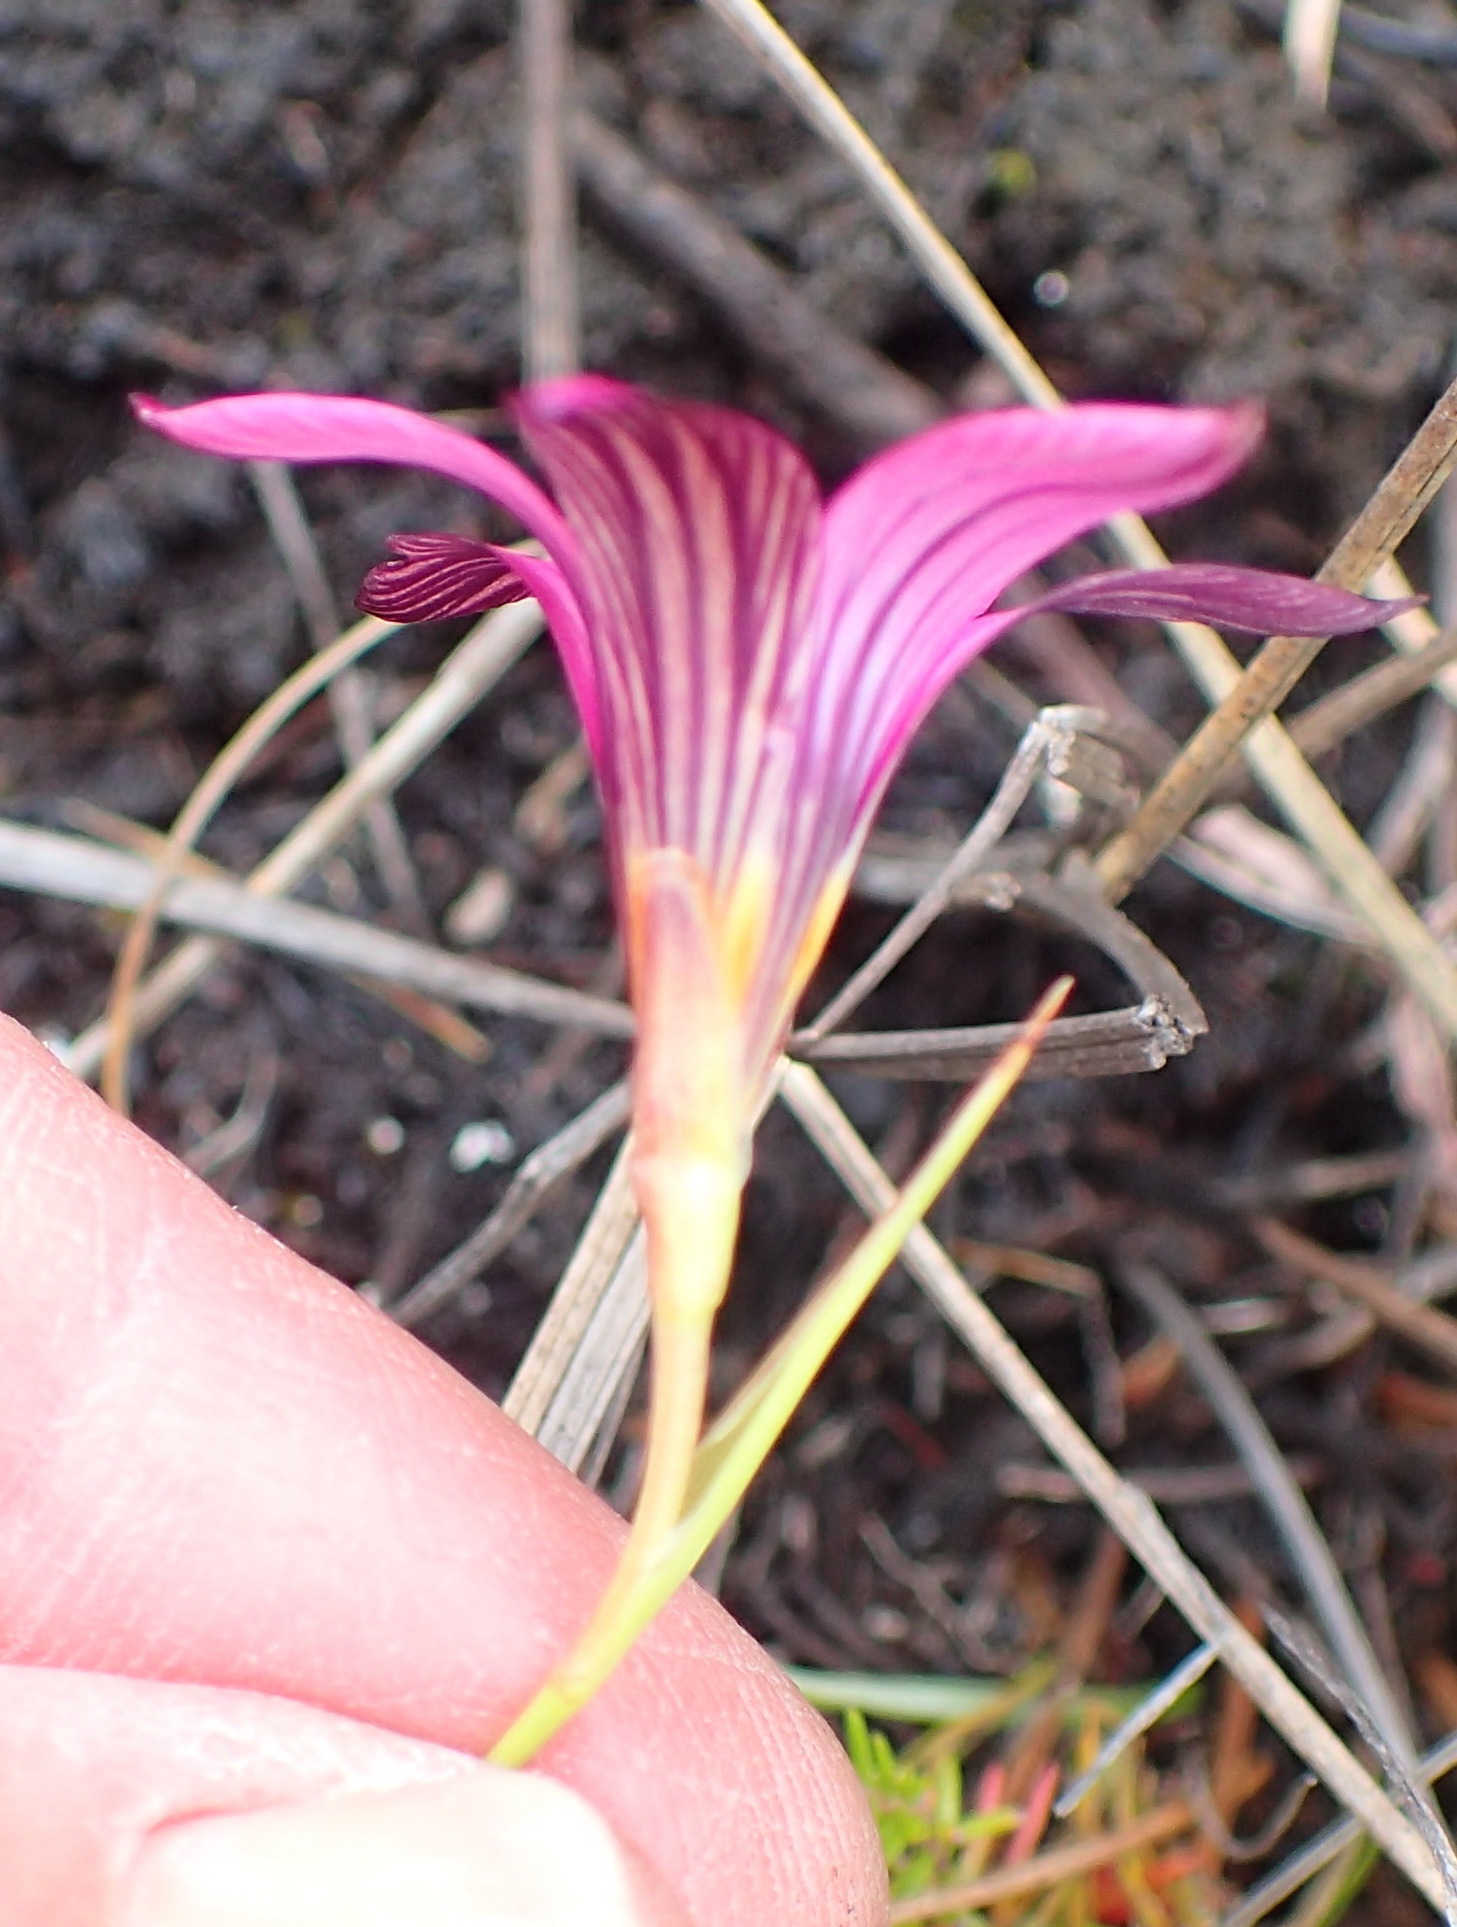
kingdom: Plantae
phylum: Tracheophyta
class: Liliopsida
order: Asparagales
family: Iridaceae
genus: Romulea
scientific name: Romulea cruciata
